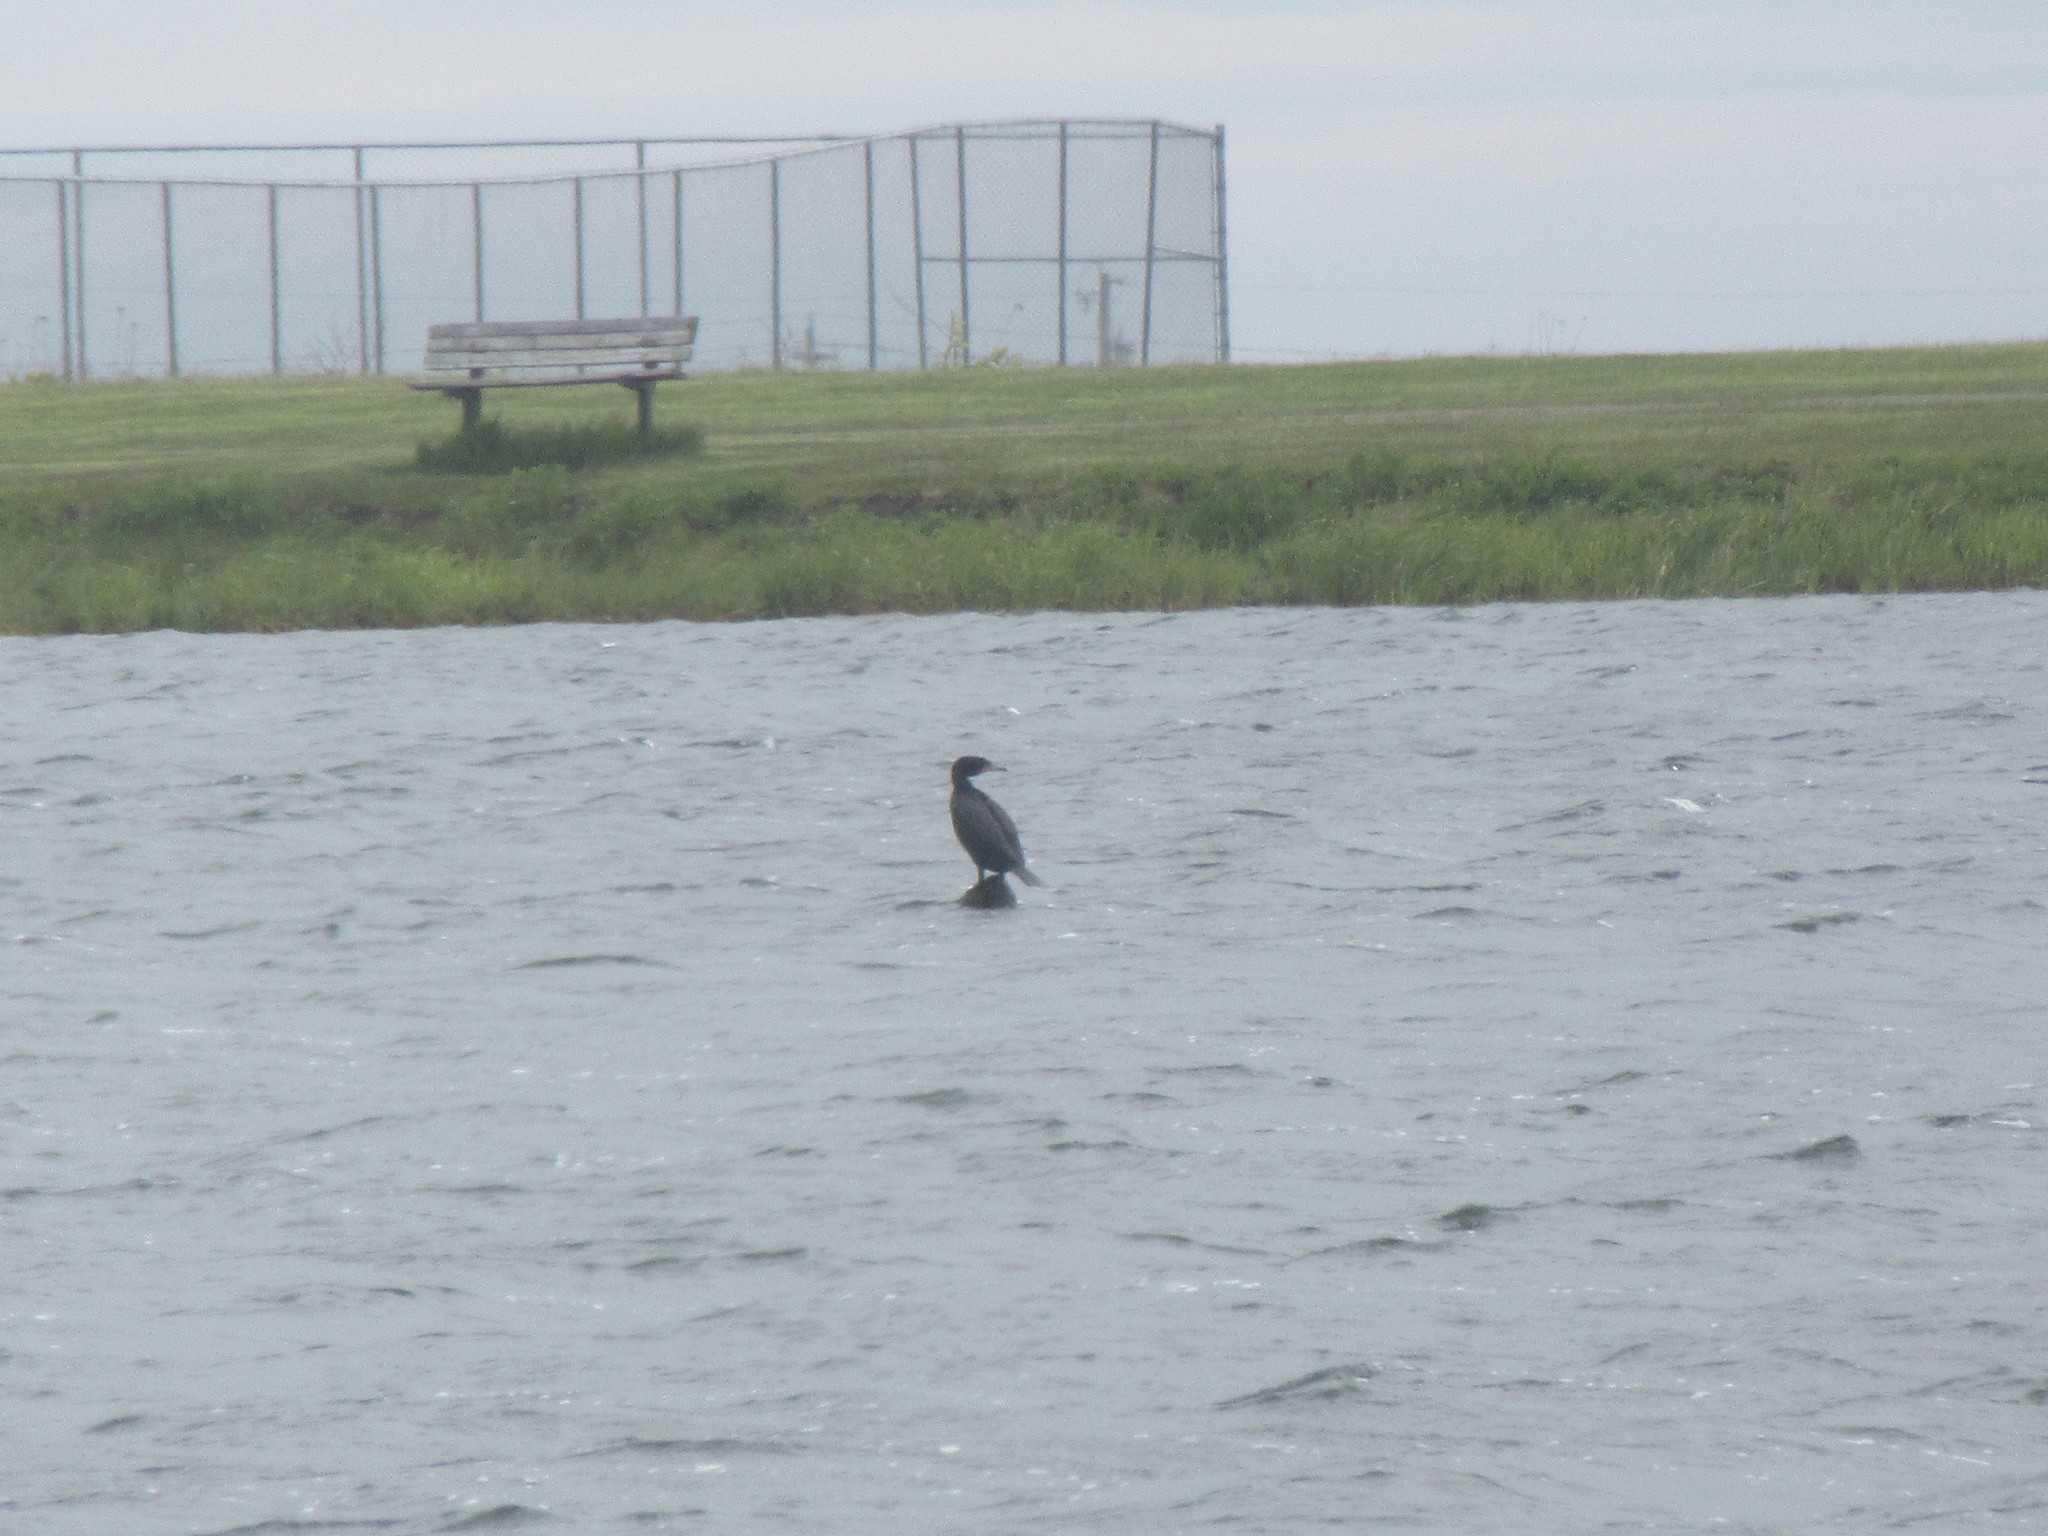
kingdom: Animalia
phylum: Chordata
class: Aves
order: Suliformes
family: Phalacrocoracidae
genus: Phalacrocorax
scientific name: Phalacrocorax auritus
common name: Double-crested cormorant
